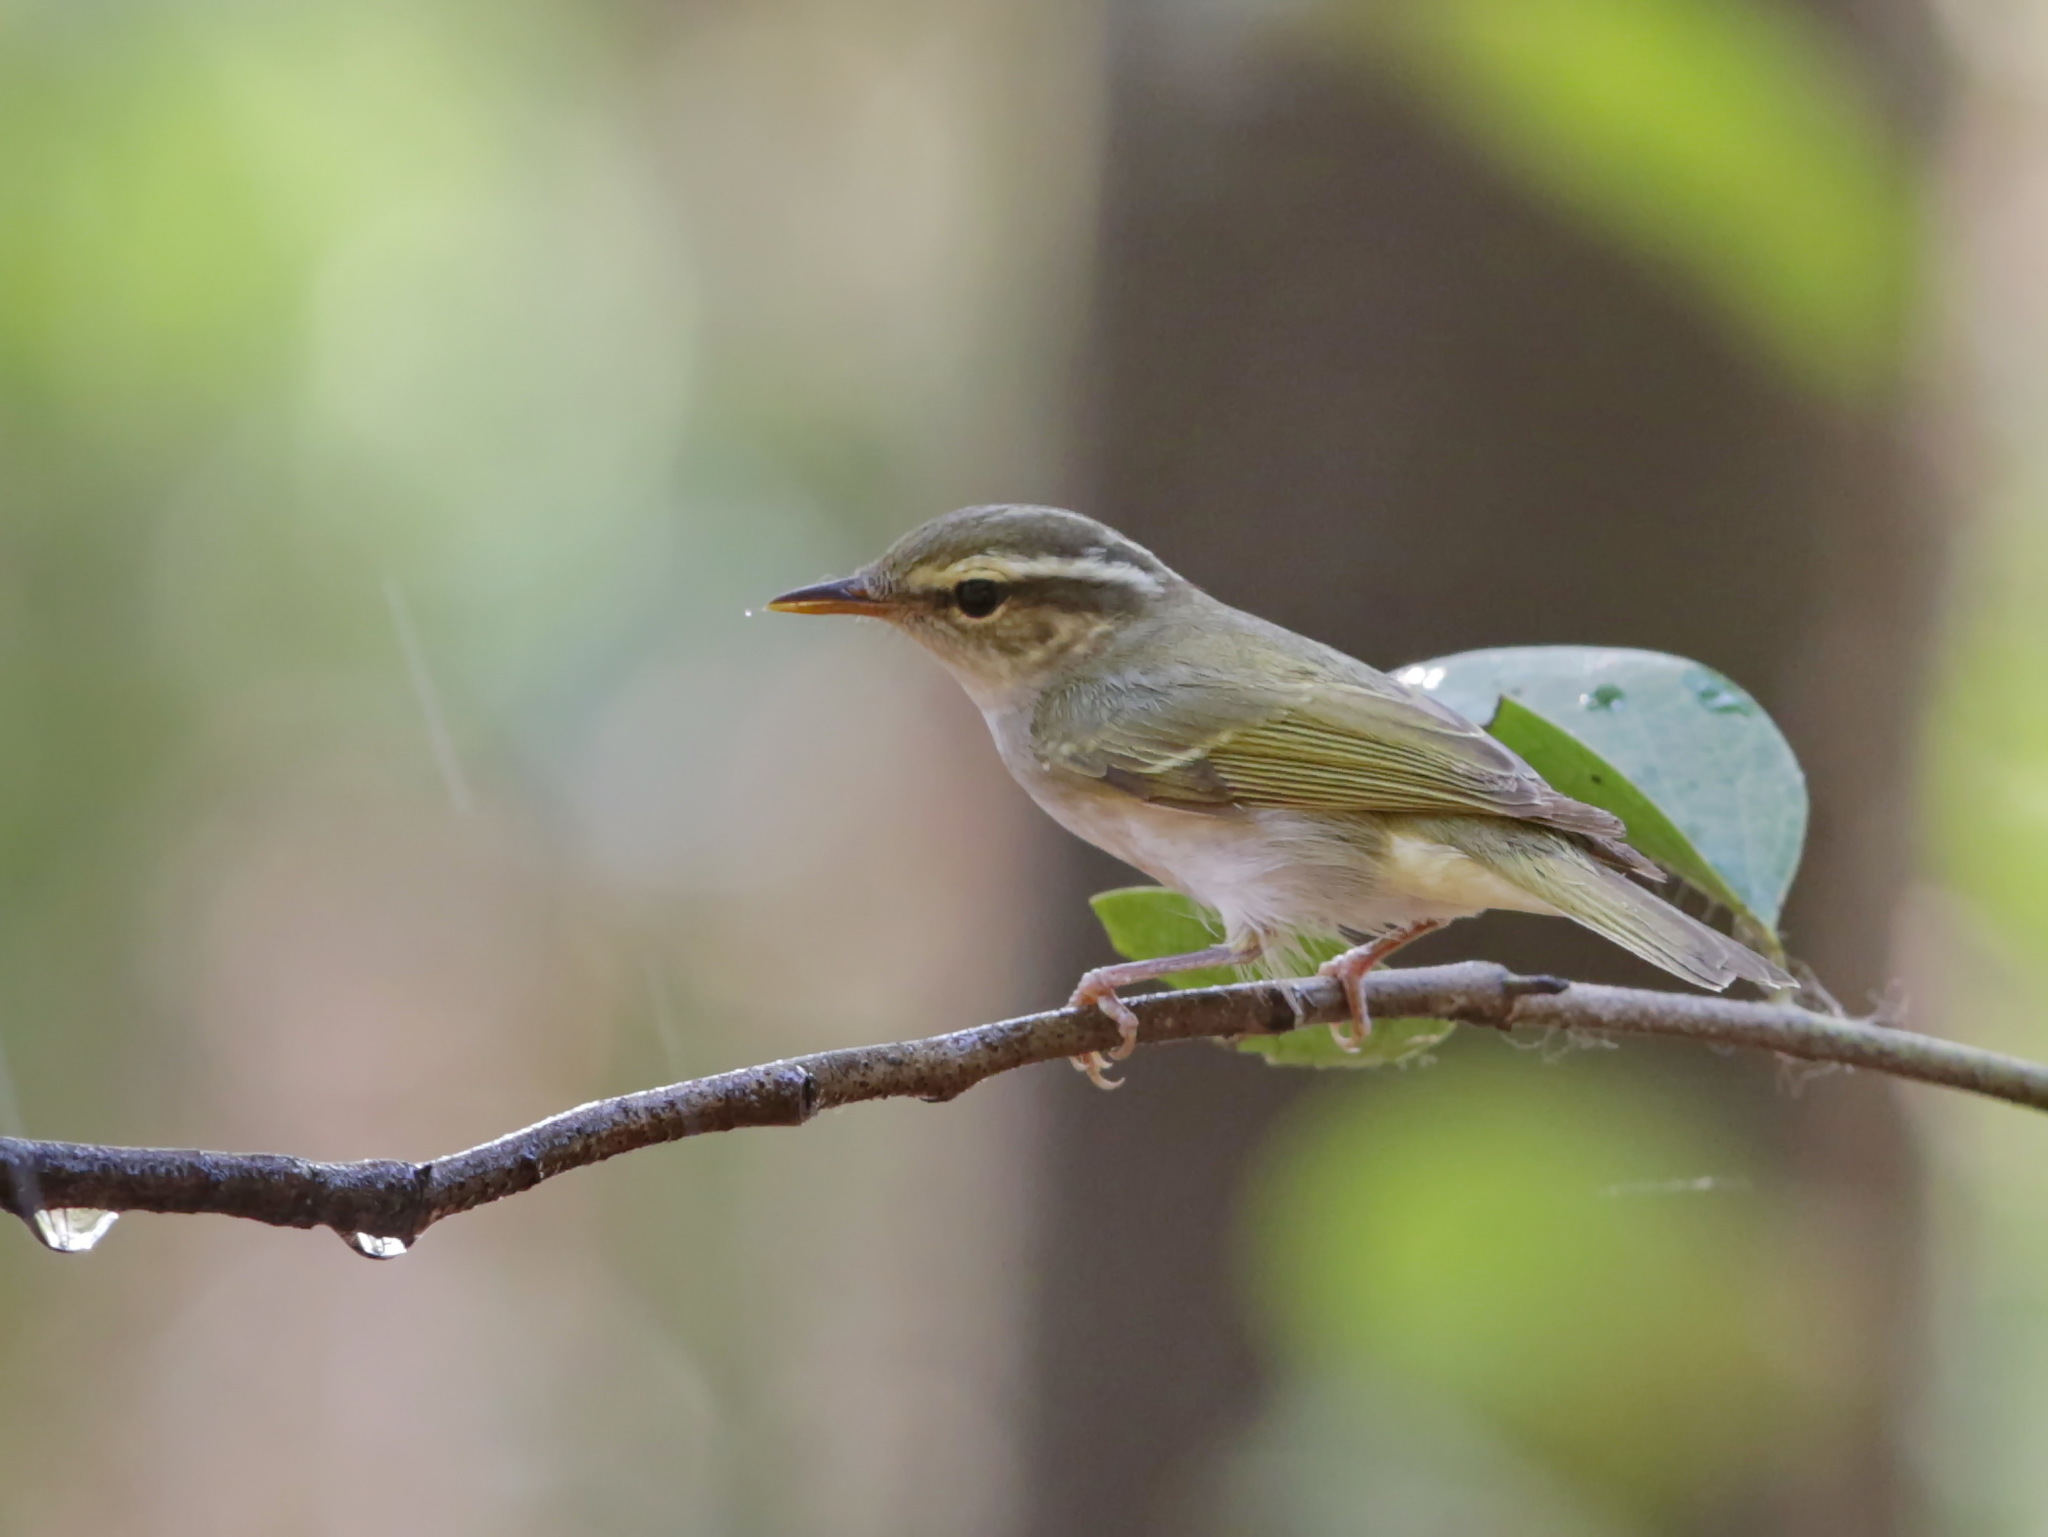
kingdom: Animalia
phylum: Chordata
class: Aves
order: Passeriformes
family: Phylloscopidae
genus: Phylloscopus
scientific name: Phylloscopus coronatus
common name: Eastern crowned warbler
